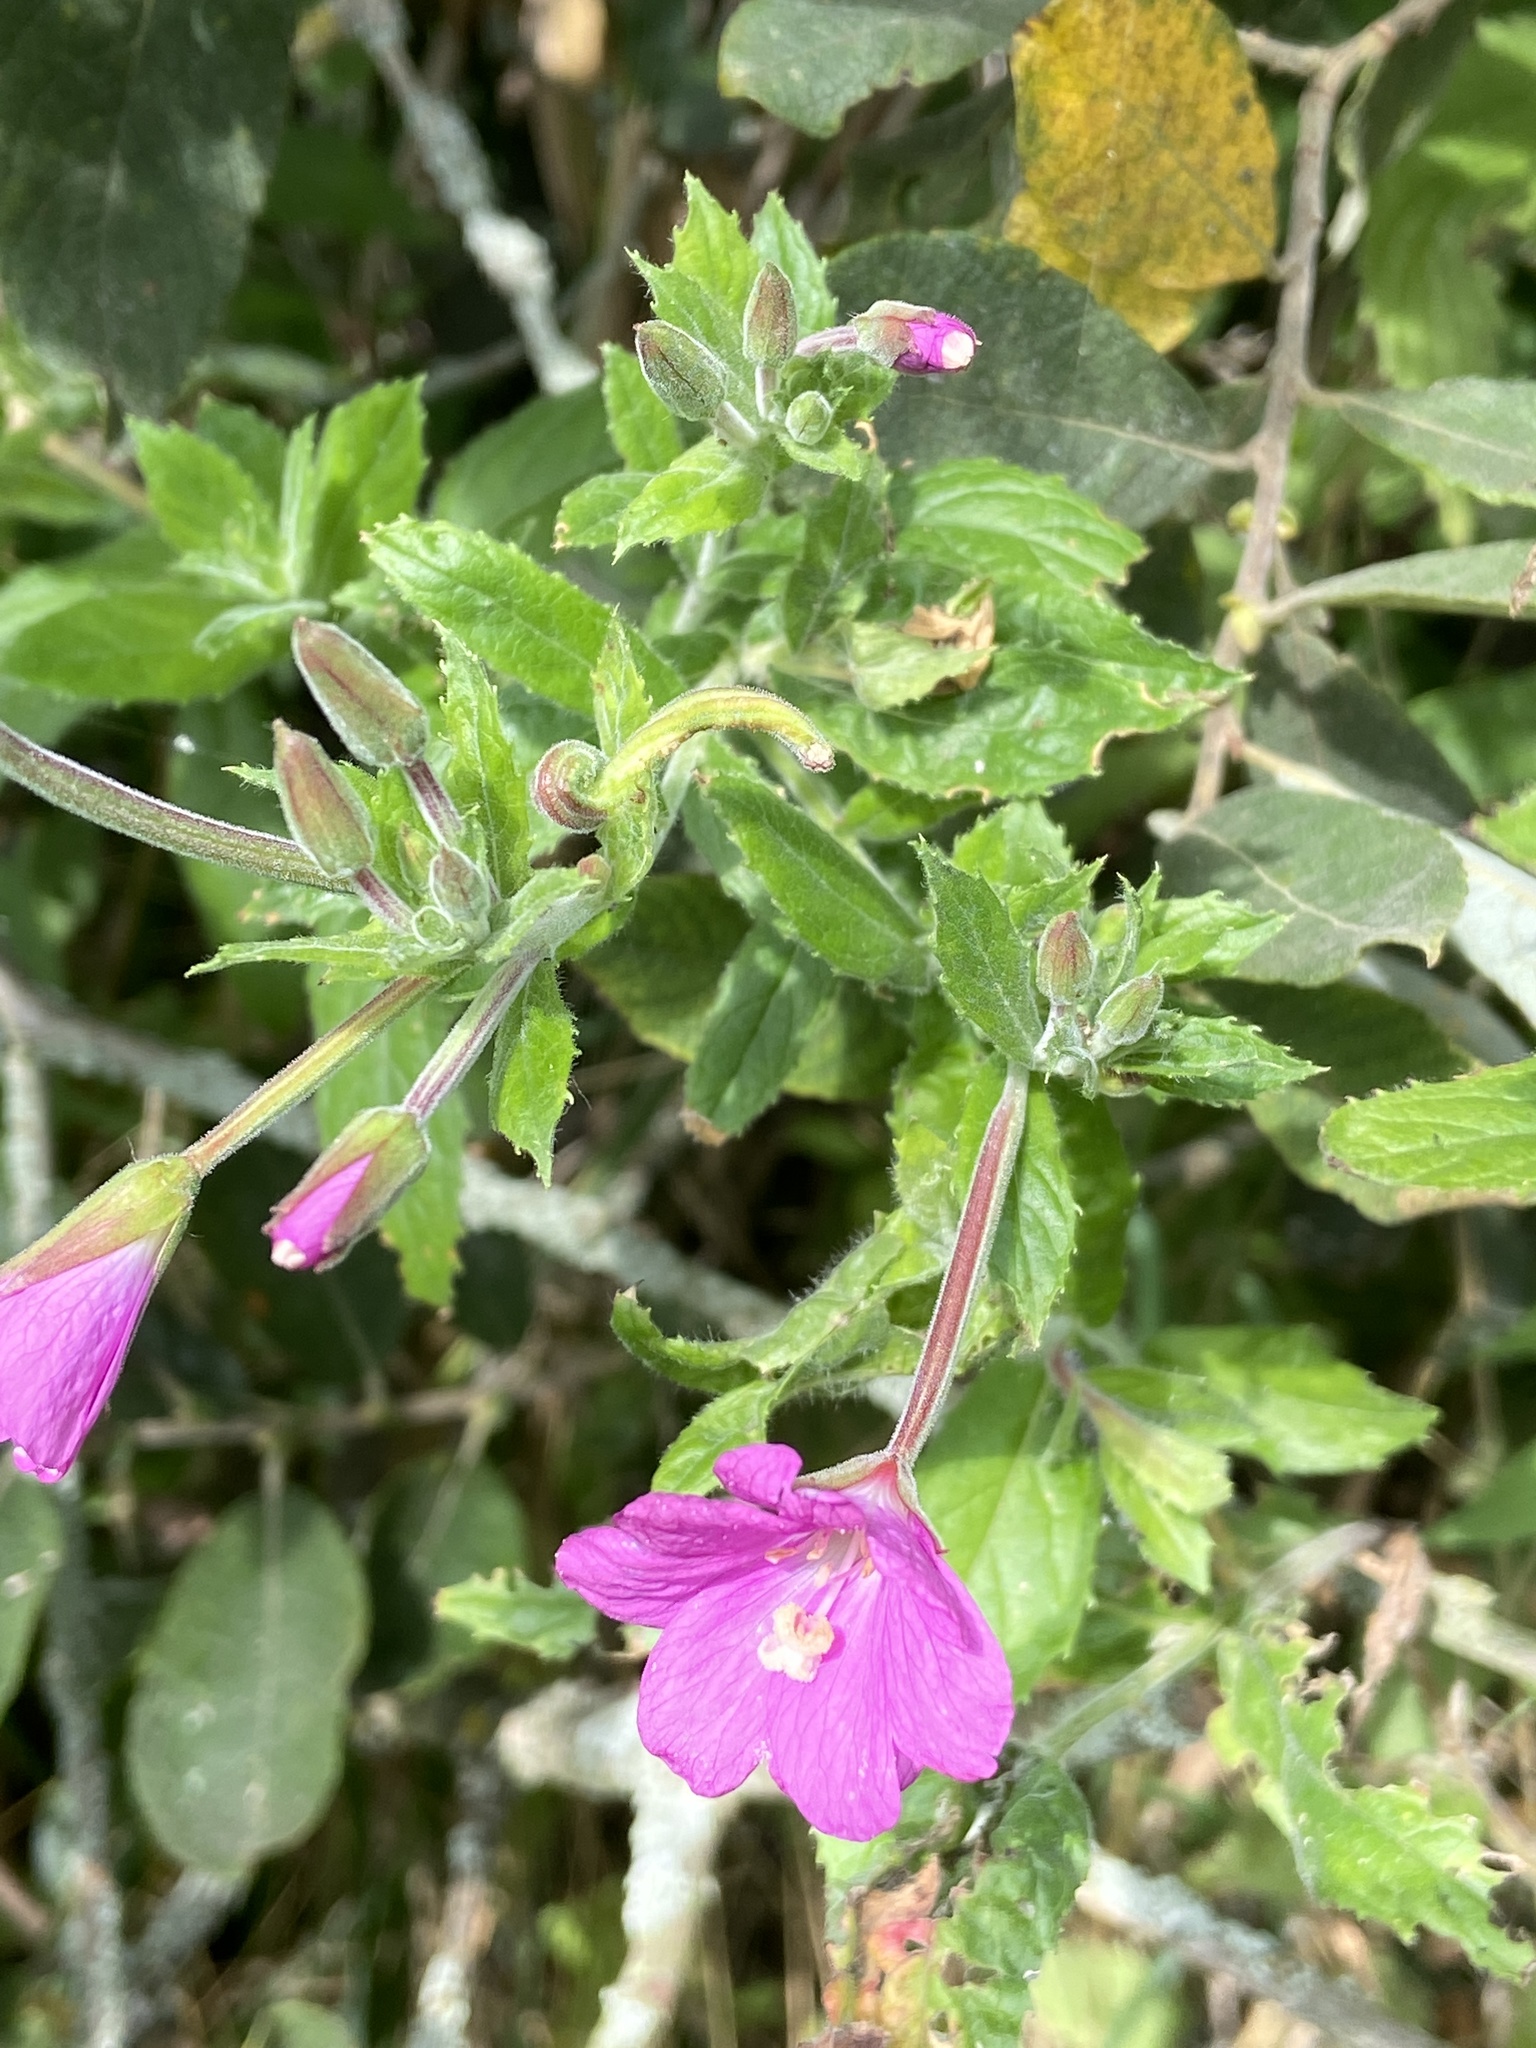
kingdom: Plantae
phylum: Tracheophyta
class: Magnoliopsida
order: Myrtales
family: Onagraceae
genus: Epilobium
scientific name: Epilobium hirsutum
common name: Great willowherb
